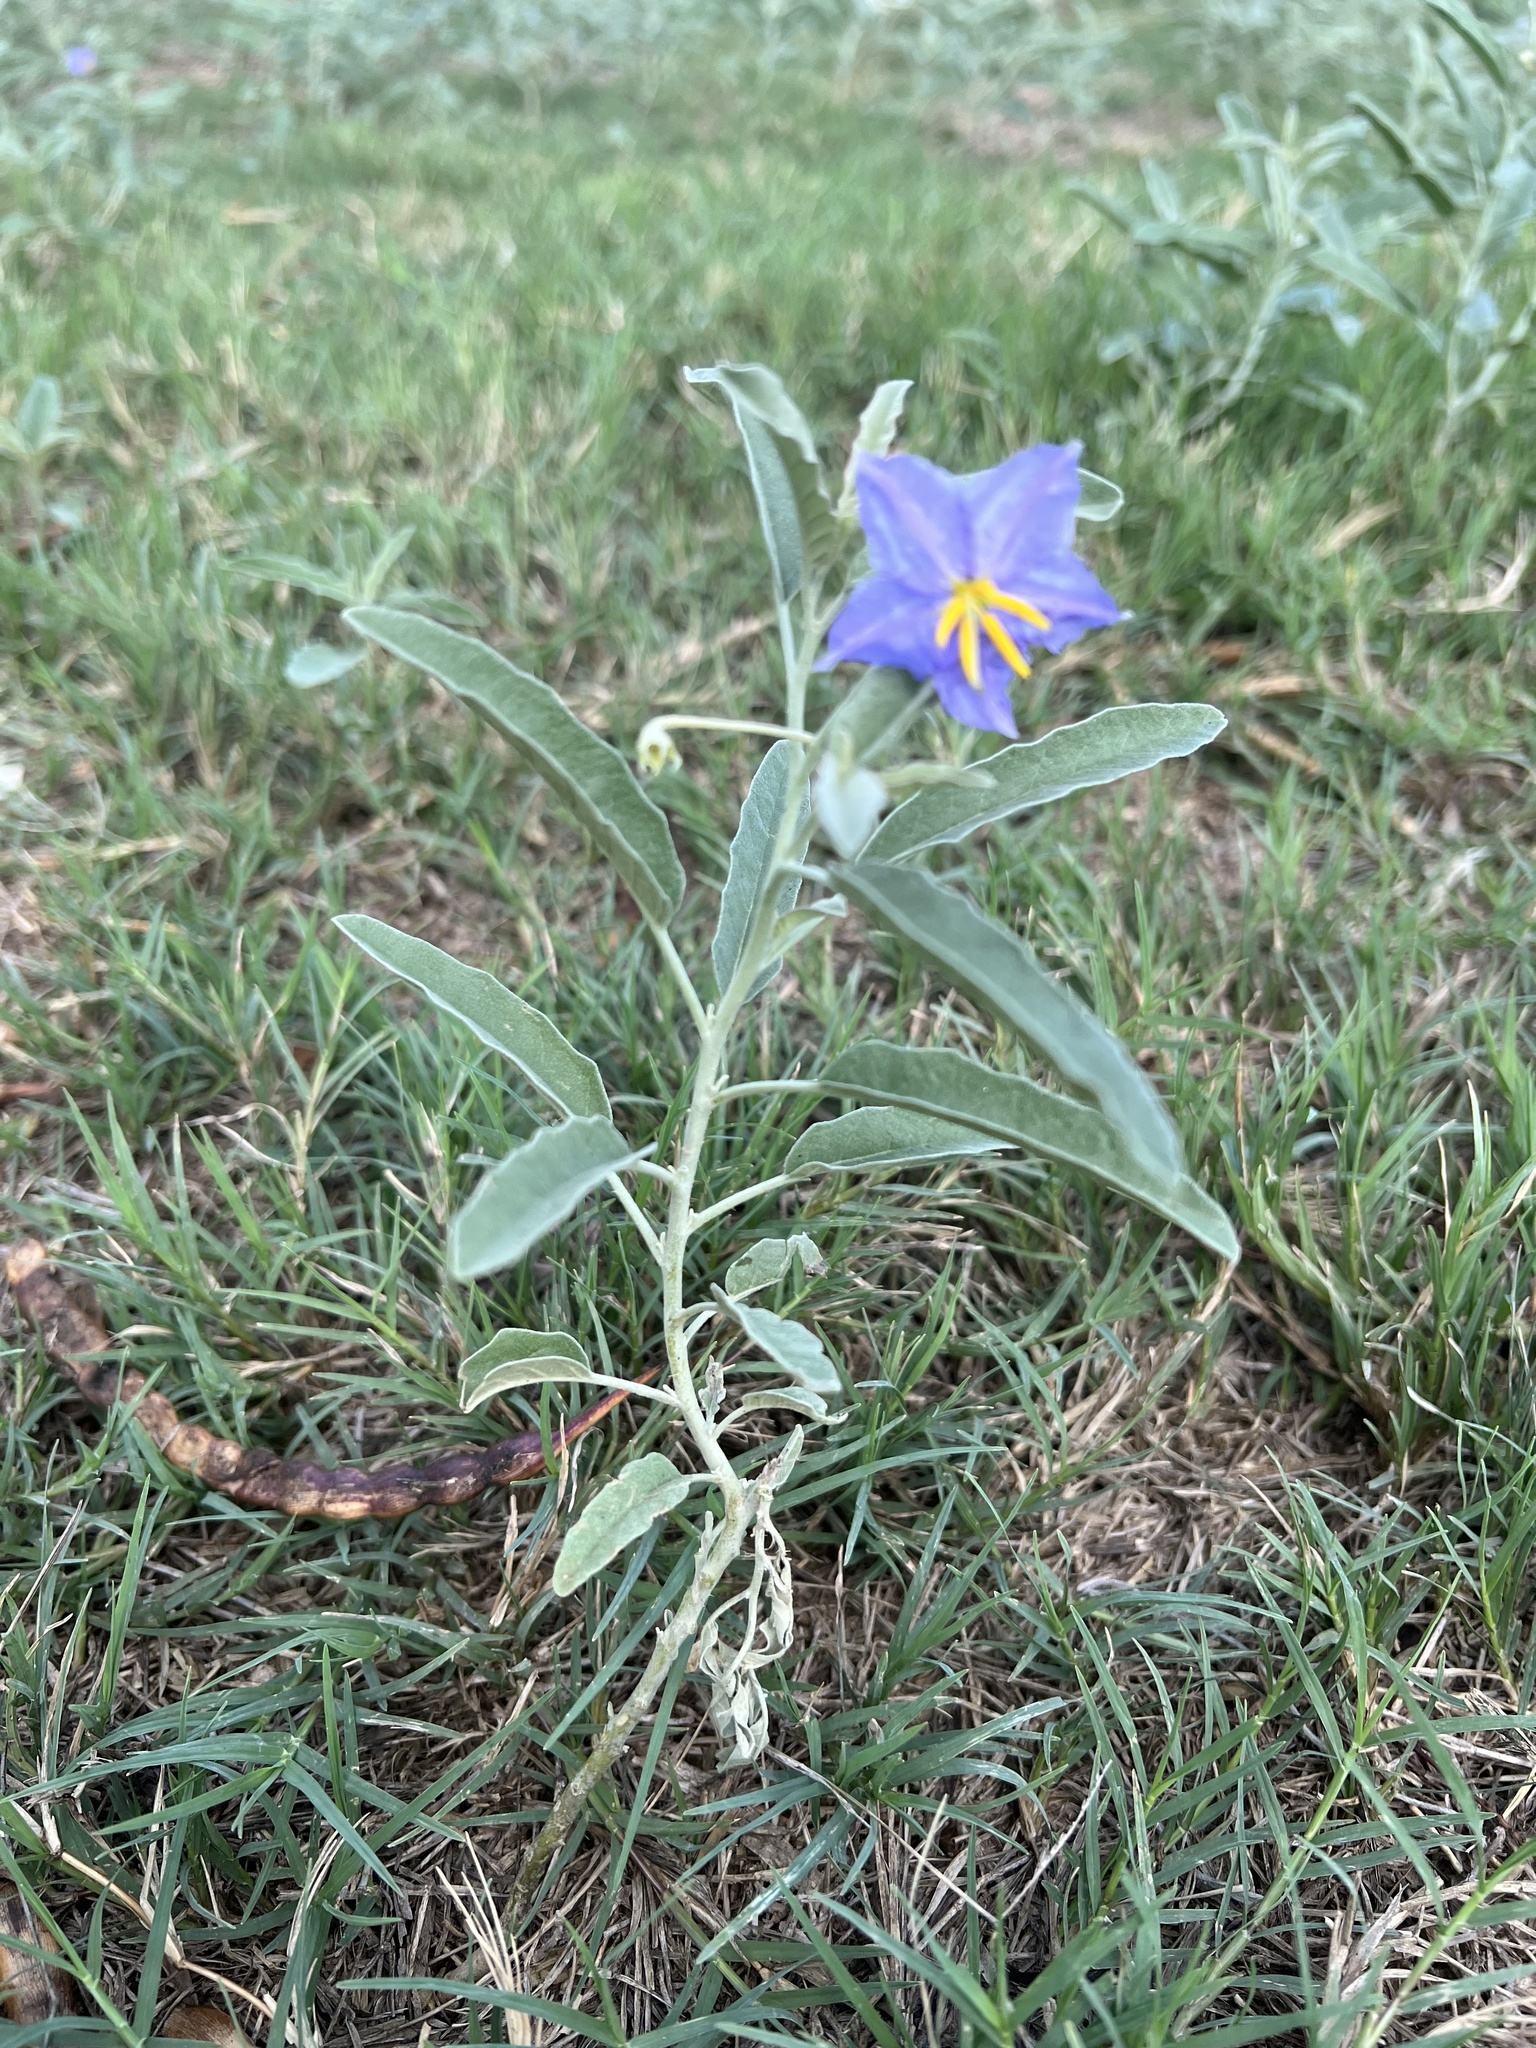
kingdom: Plantae
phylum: Tracheophyta
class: Magnoliopsida
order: Solanales
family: Solanaceae
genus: Solanum
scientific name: Solanum elaeagnifolium
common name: Silverleaf nightshade
